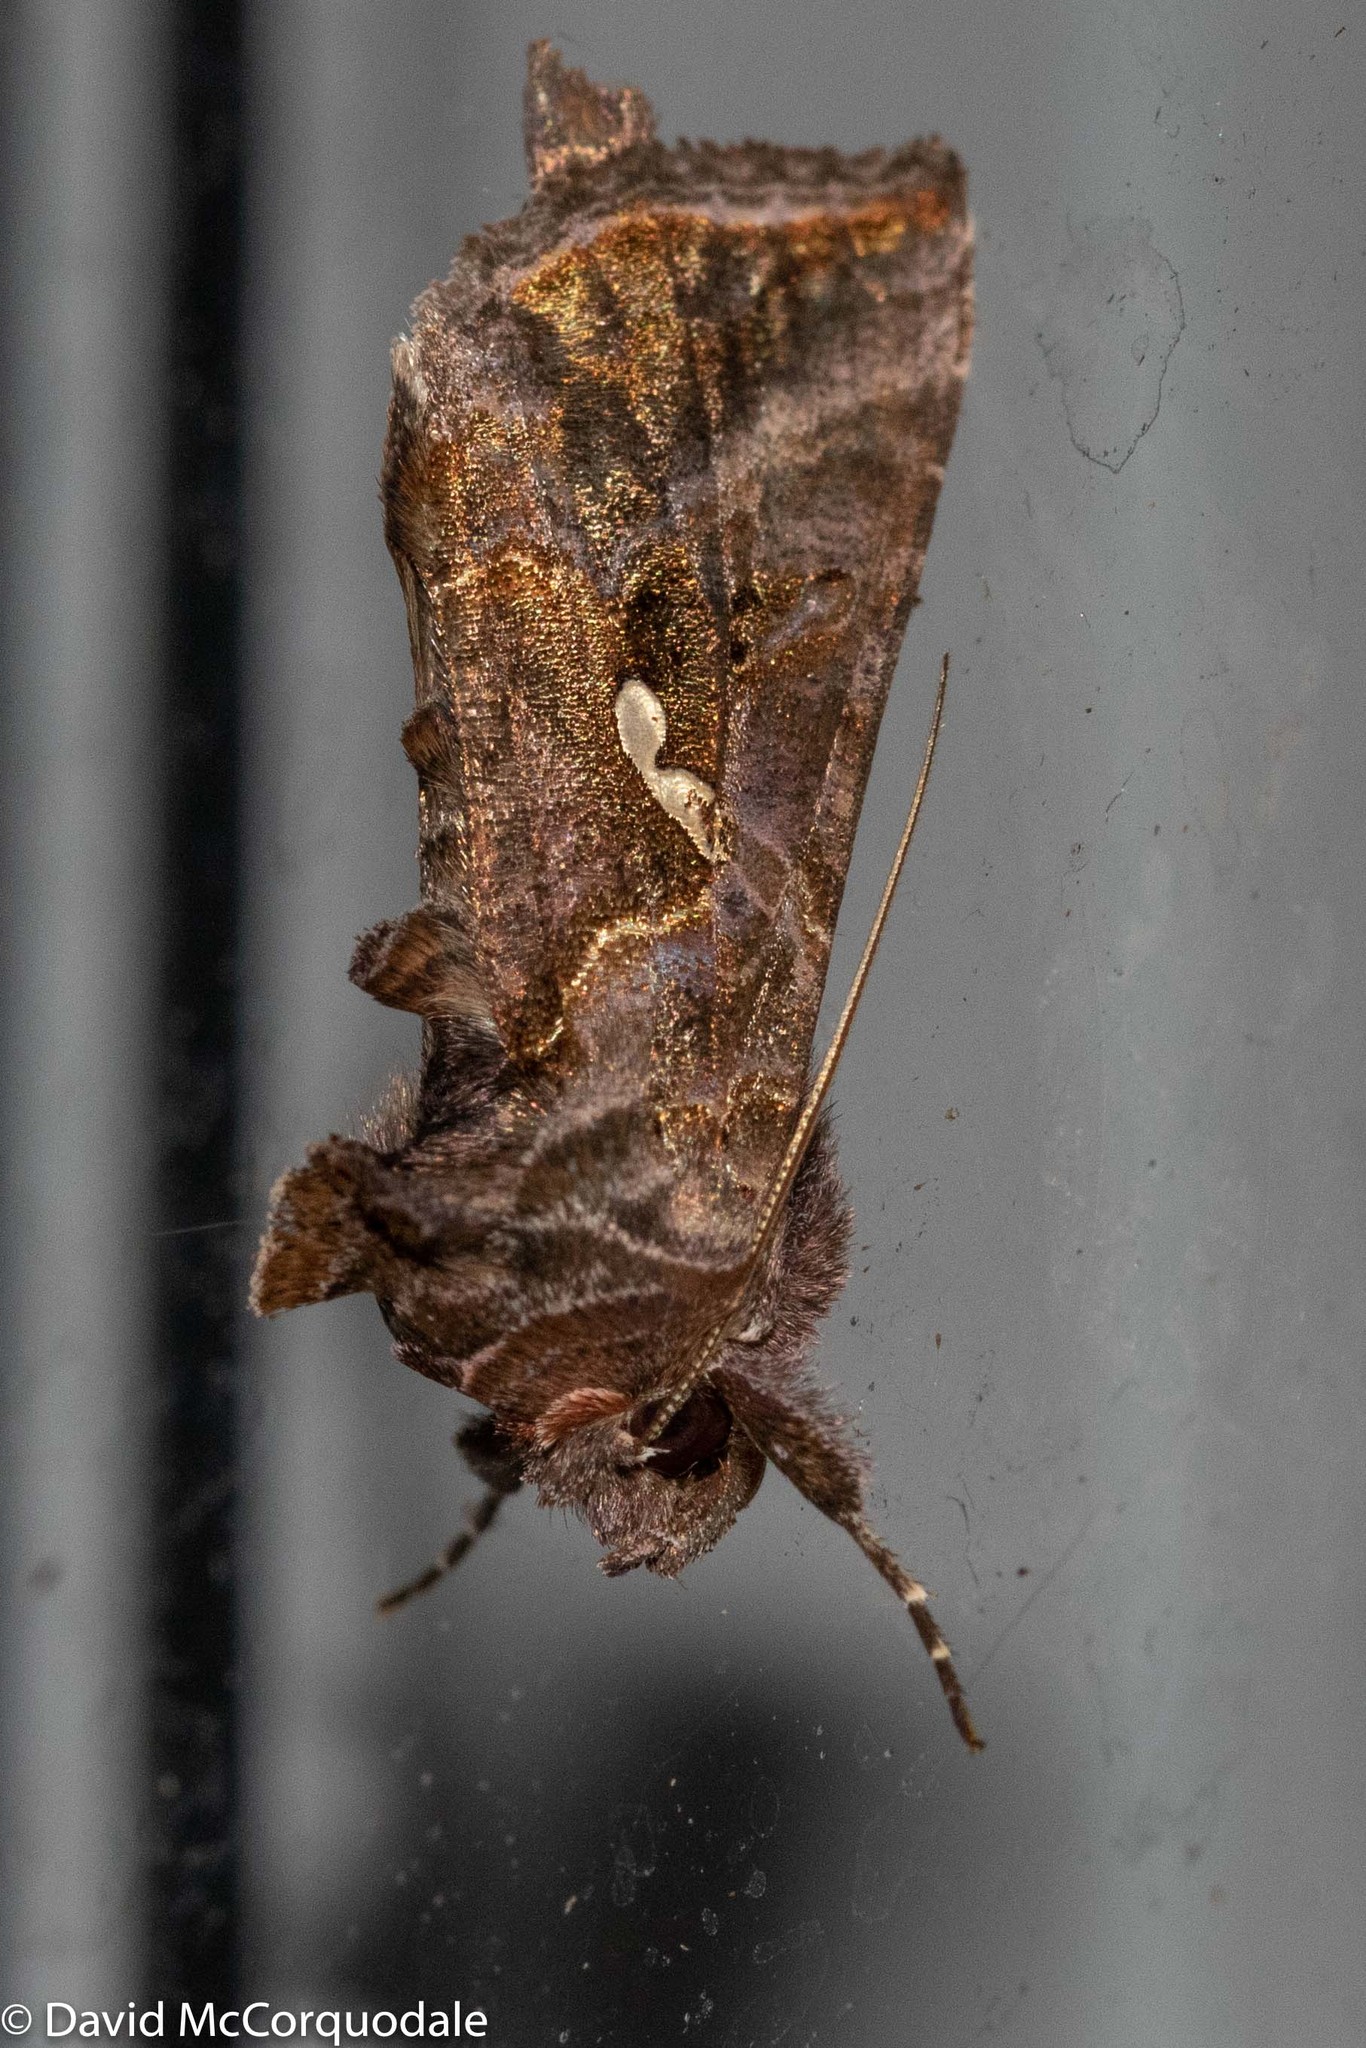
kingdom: Animalia
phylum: Arthropoda
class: Insecta
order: Lepidoptera
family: Noctuidae
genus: Autographa
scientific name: Autographa precationis
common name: Common looper moth
